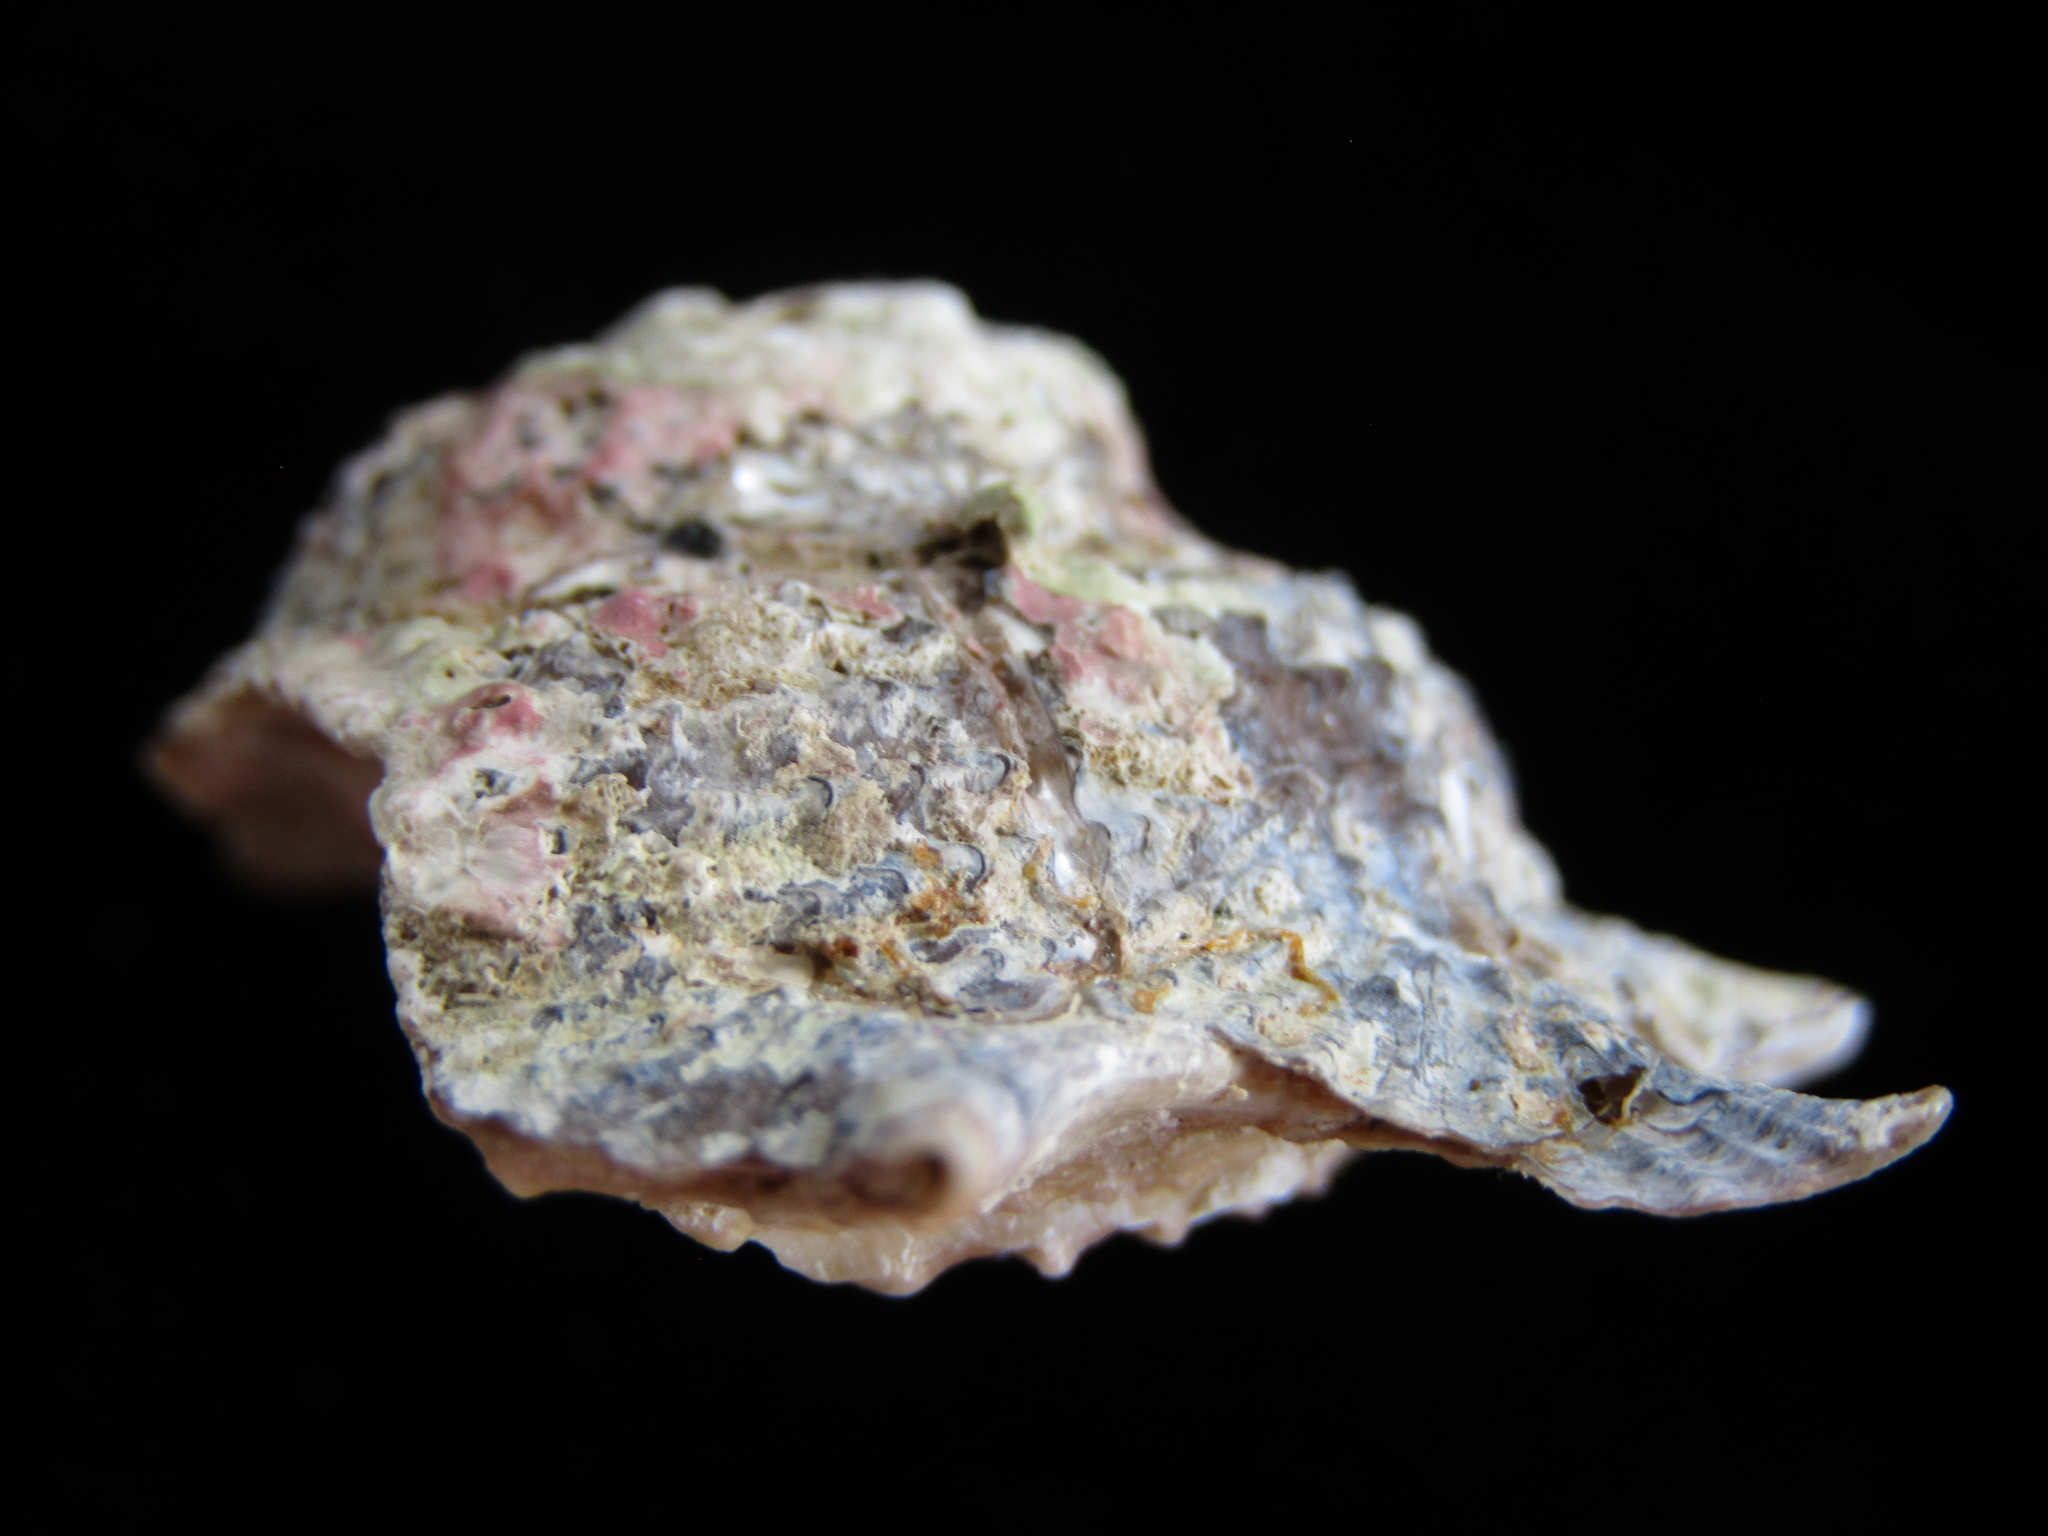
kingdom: Animalia
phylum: Mollusca
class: Gastropoda
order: Trochida
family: Turbinidae
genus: Astraea
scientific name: Astraea heliotropium
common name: Sun shell
